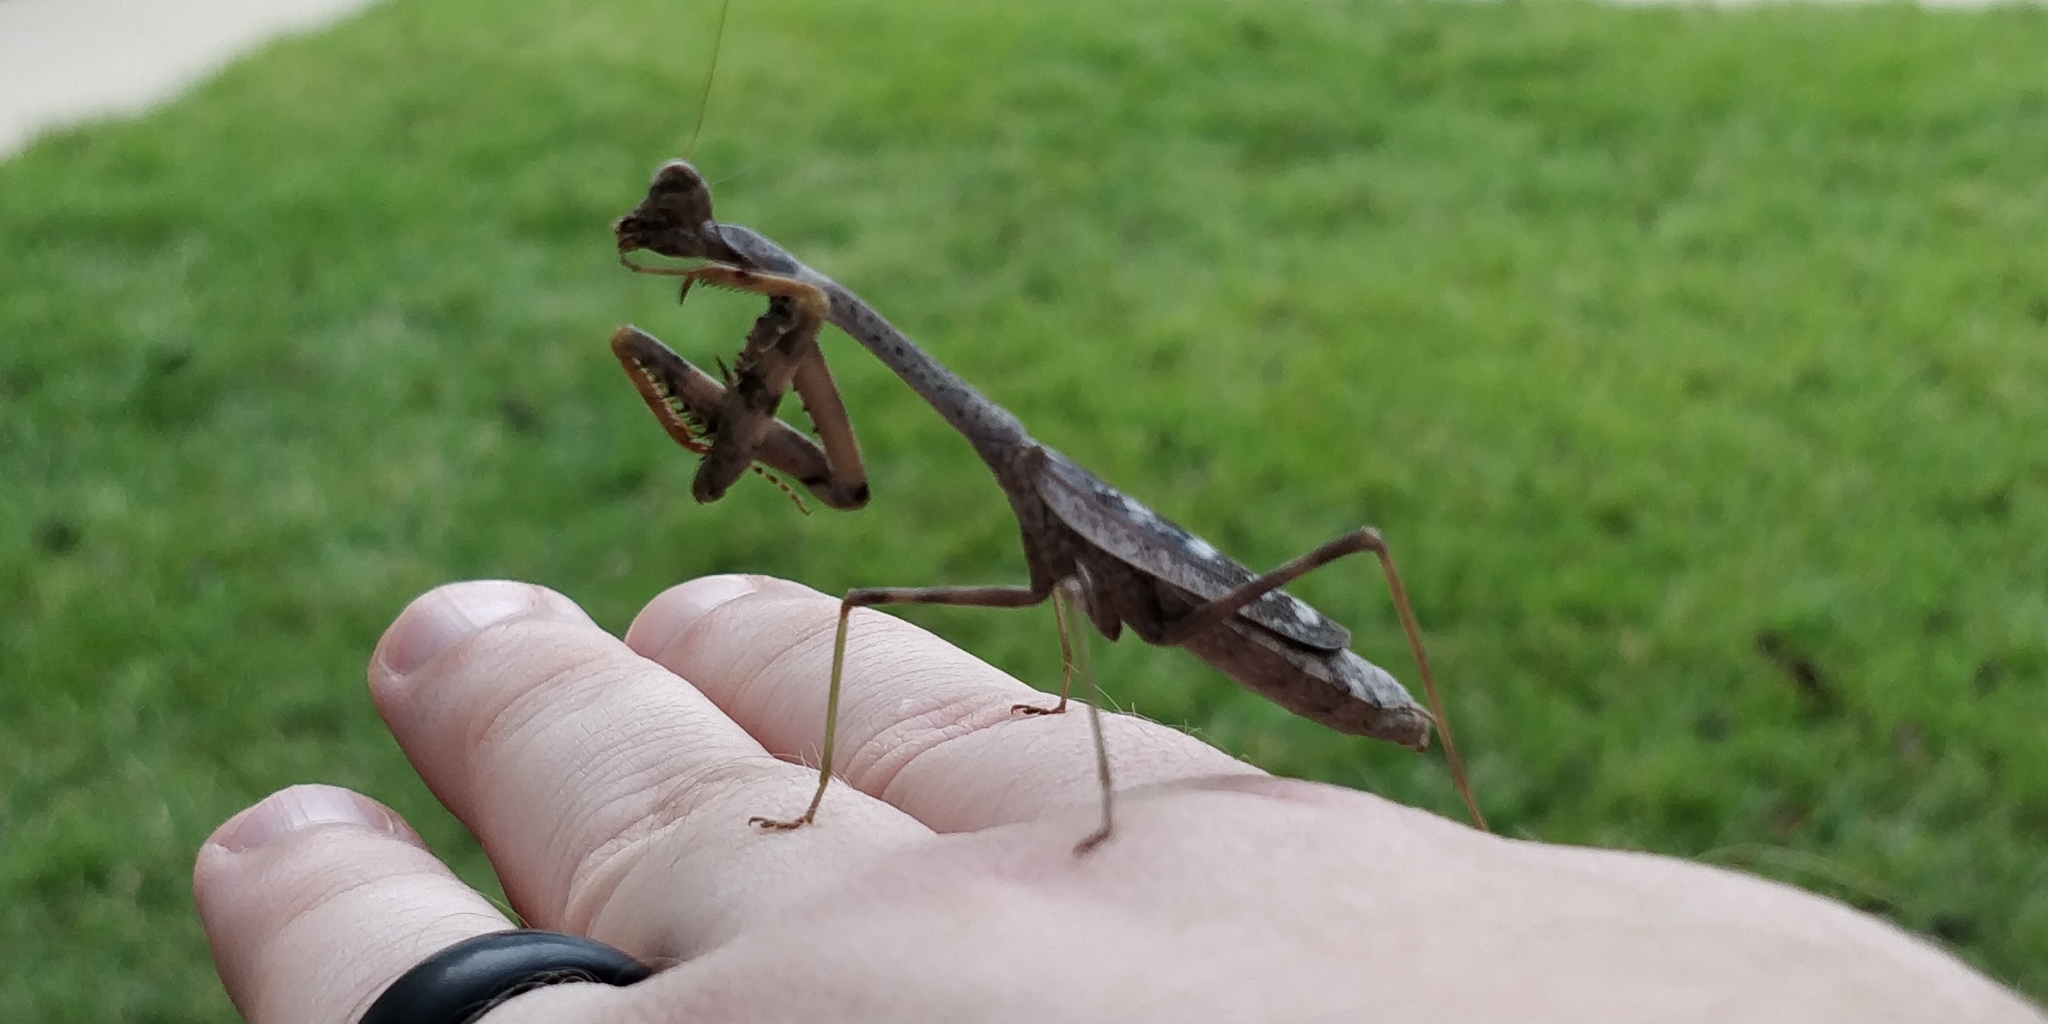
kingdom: Animalia
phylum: Arthropoda
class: Insecta
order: Mantodea
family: Mantidae
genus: Stagmomantis
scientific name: Stagmomantis carolina
